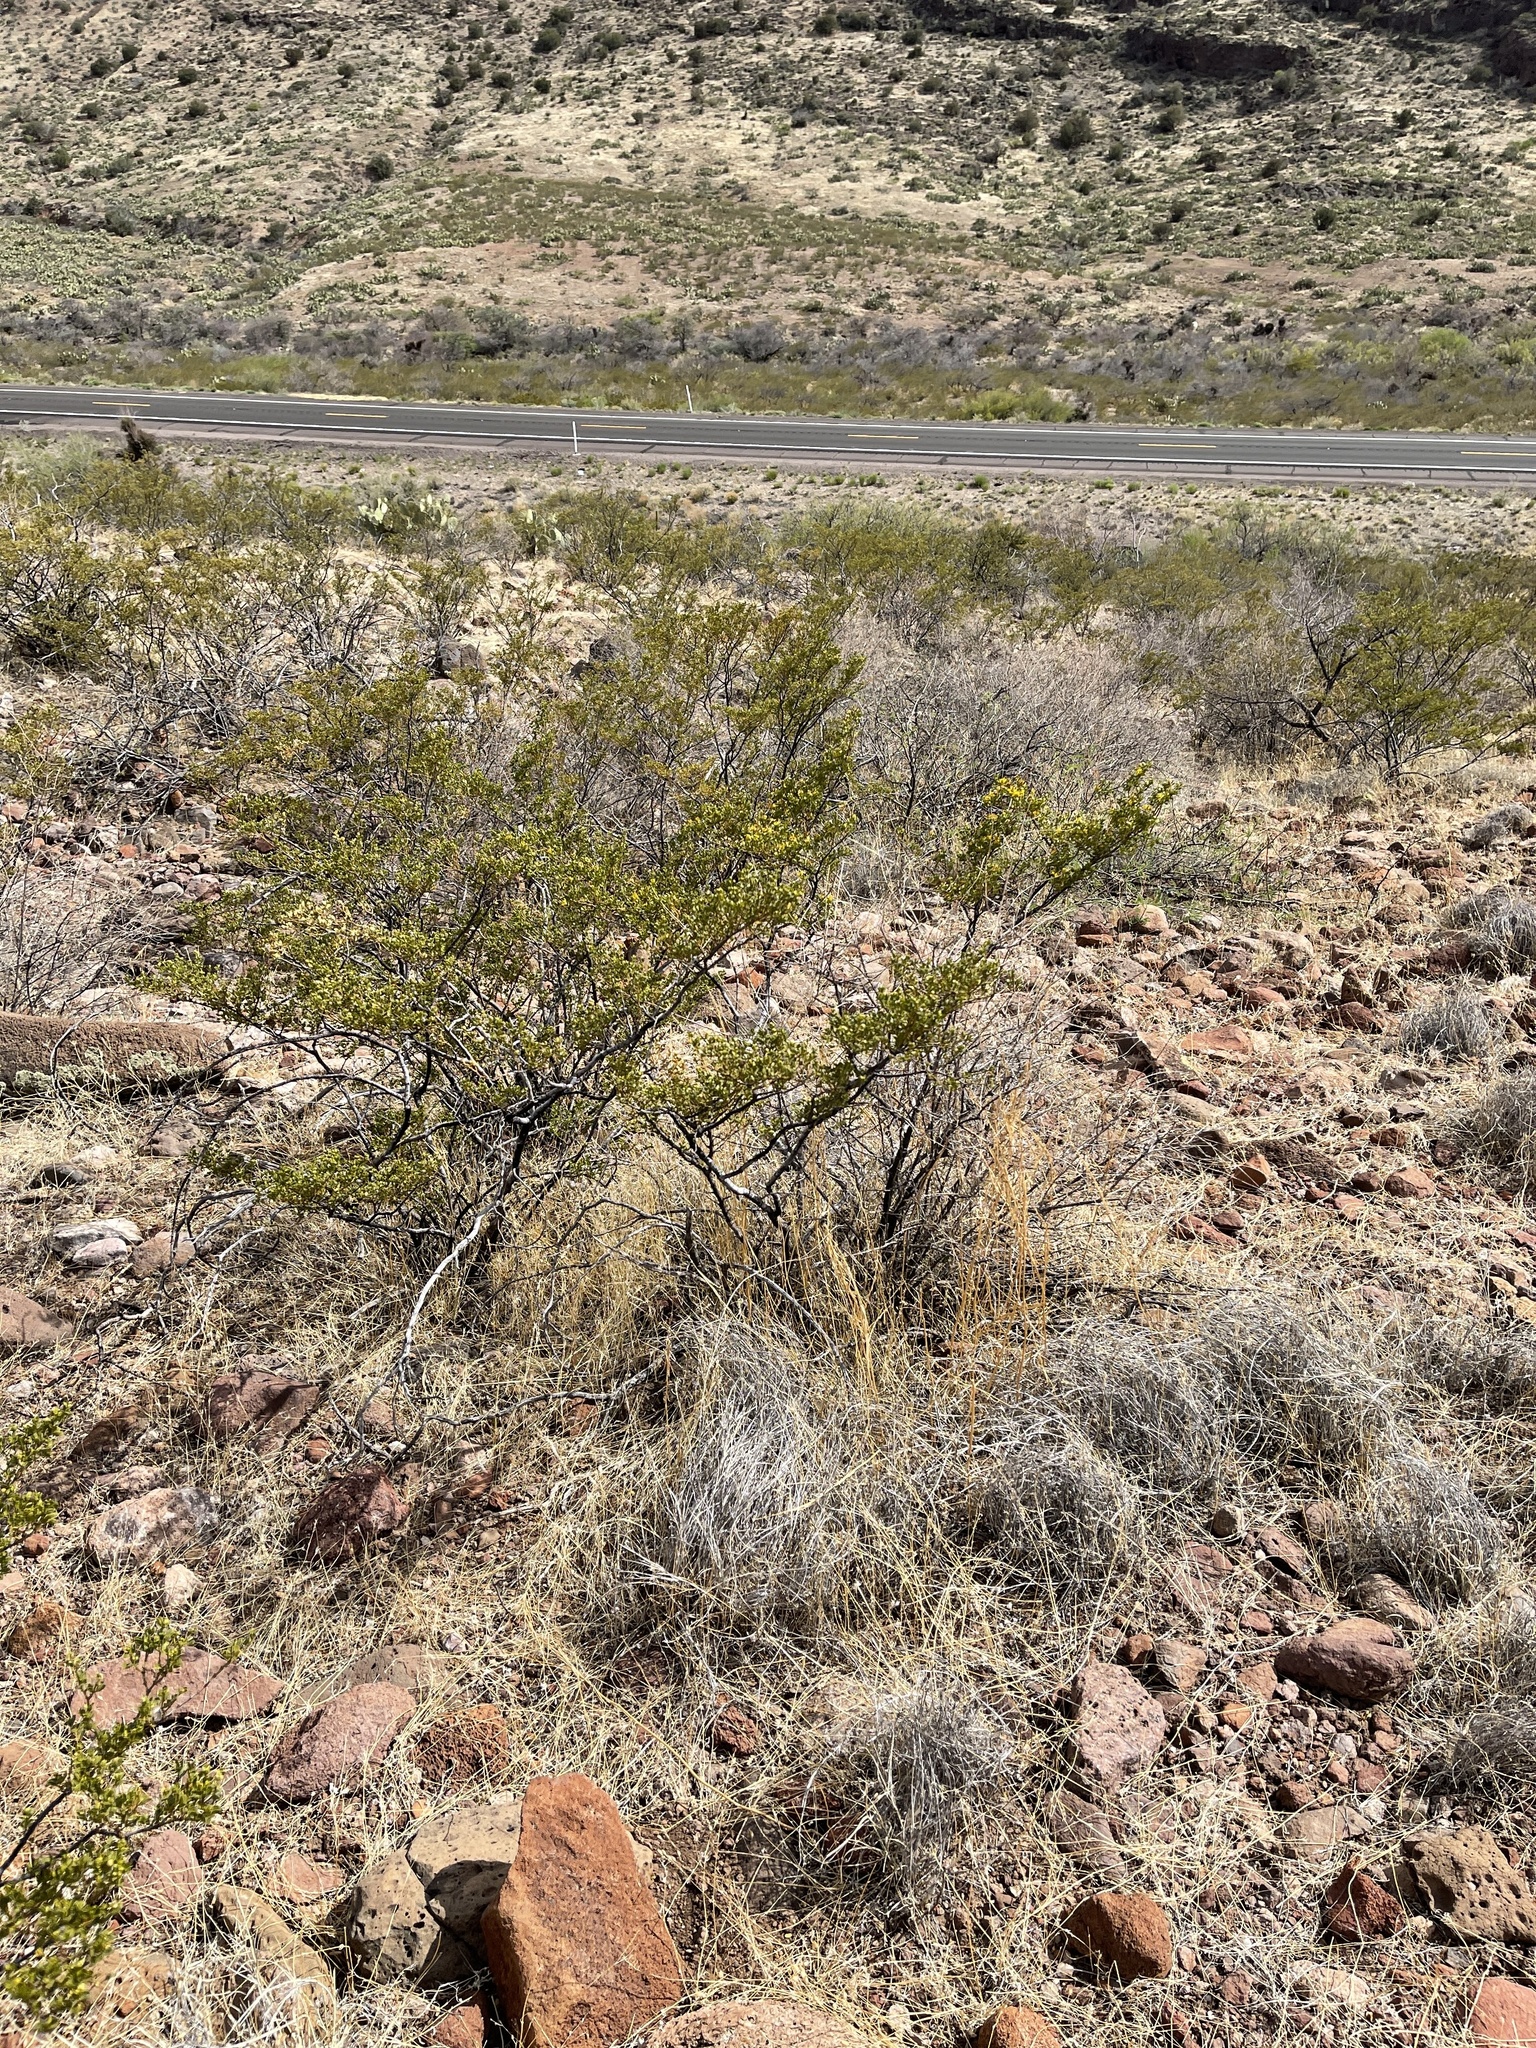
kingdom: Plantae
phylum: Tracheophyta
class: Magnoliopsida
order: Zygophyllales
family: Zygophyllaceae
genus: Larrea
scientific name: Larrea tridentata
